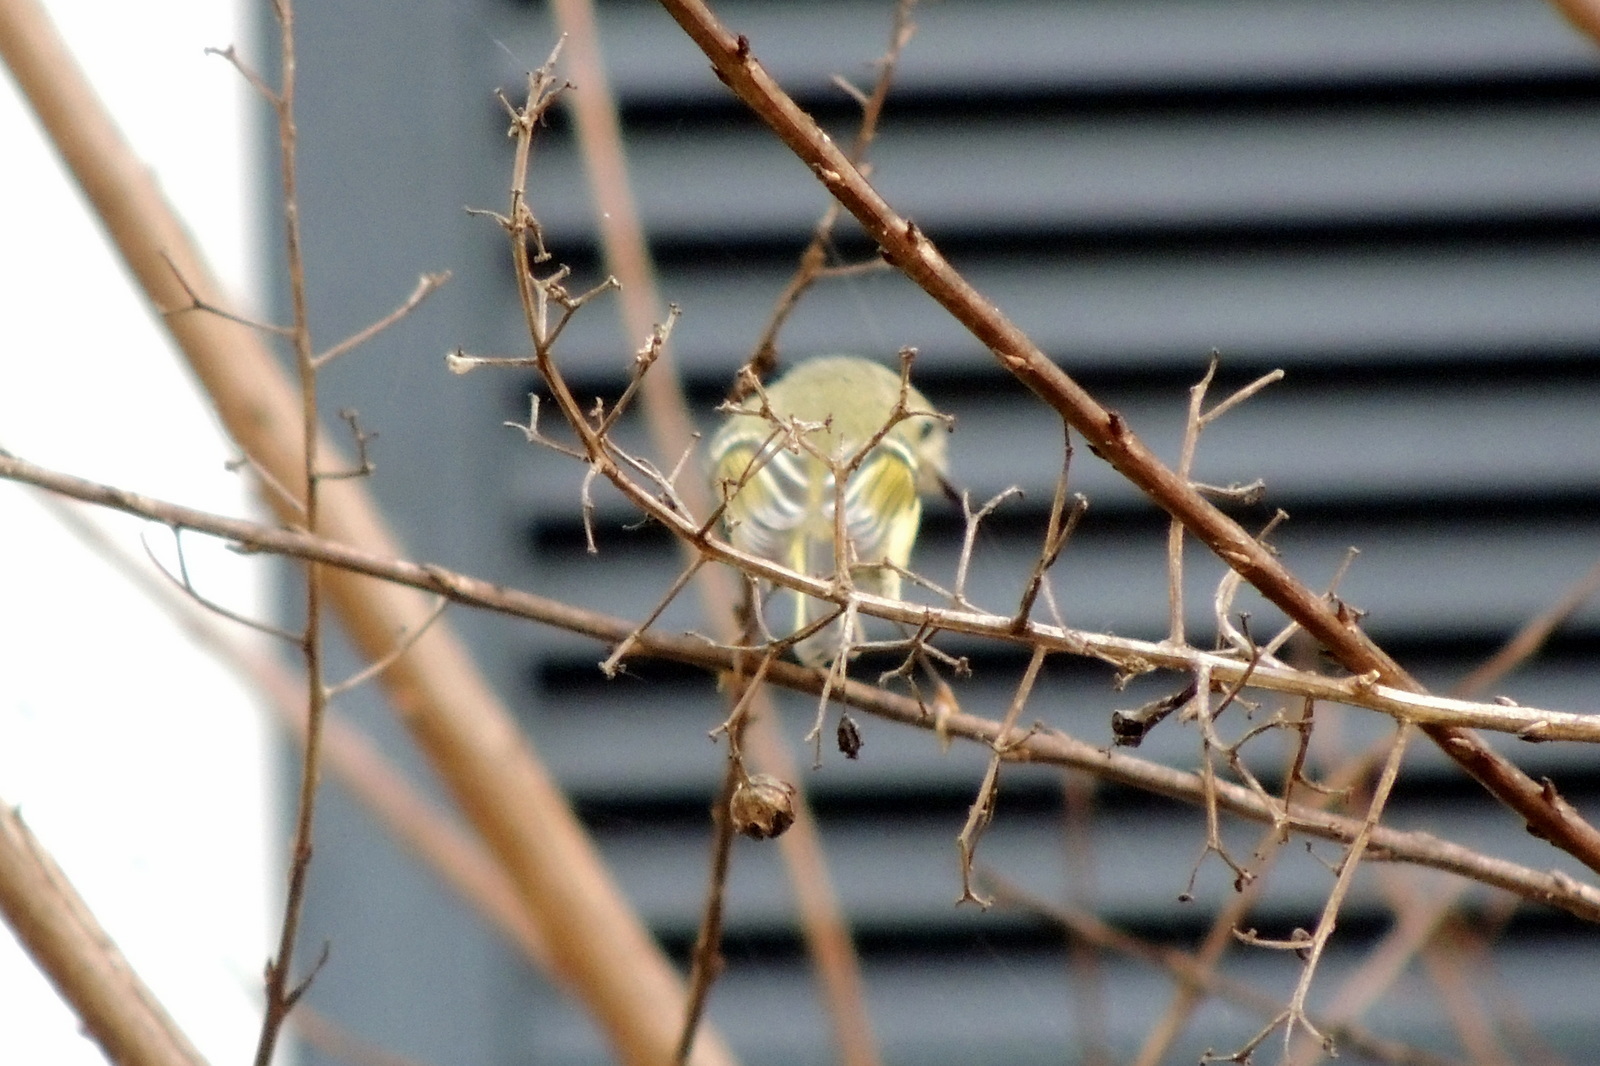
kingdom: Animalia
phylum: Chordata
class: Aves
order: Passeriformes
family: Regulidae
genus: Regulus
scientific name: Regulus calendula
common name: Ruby-crowned kinglet
